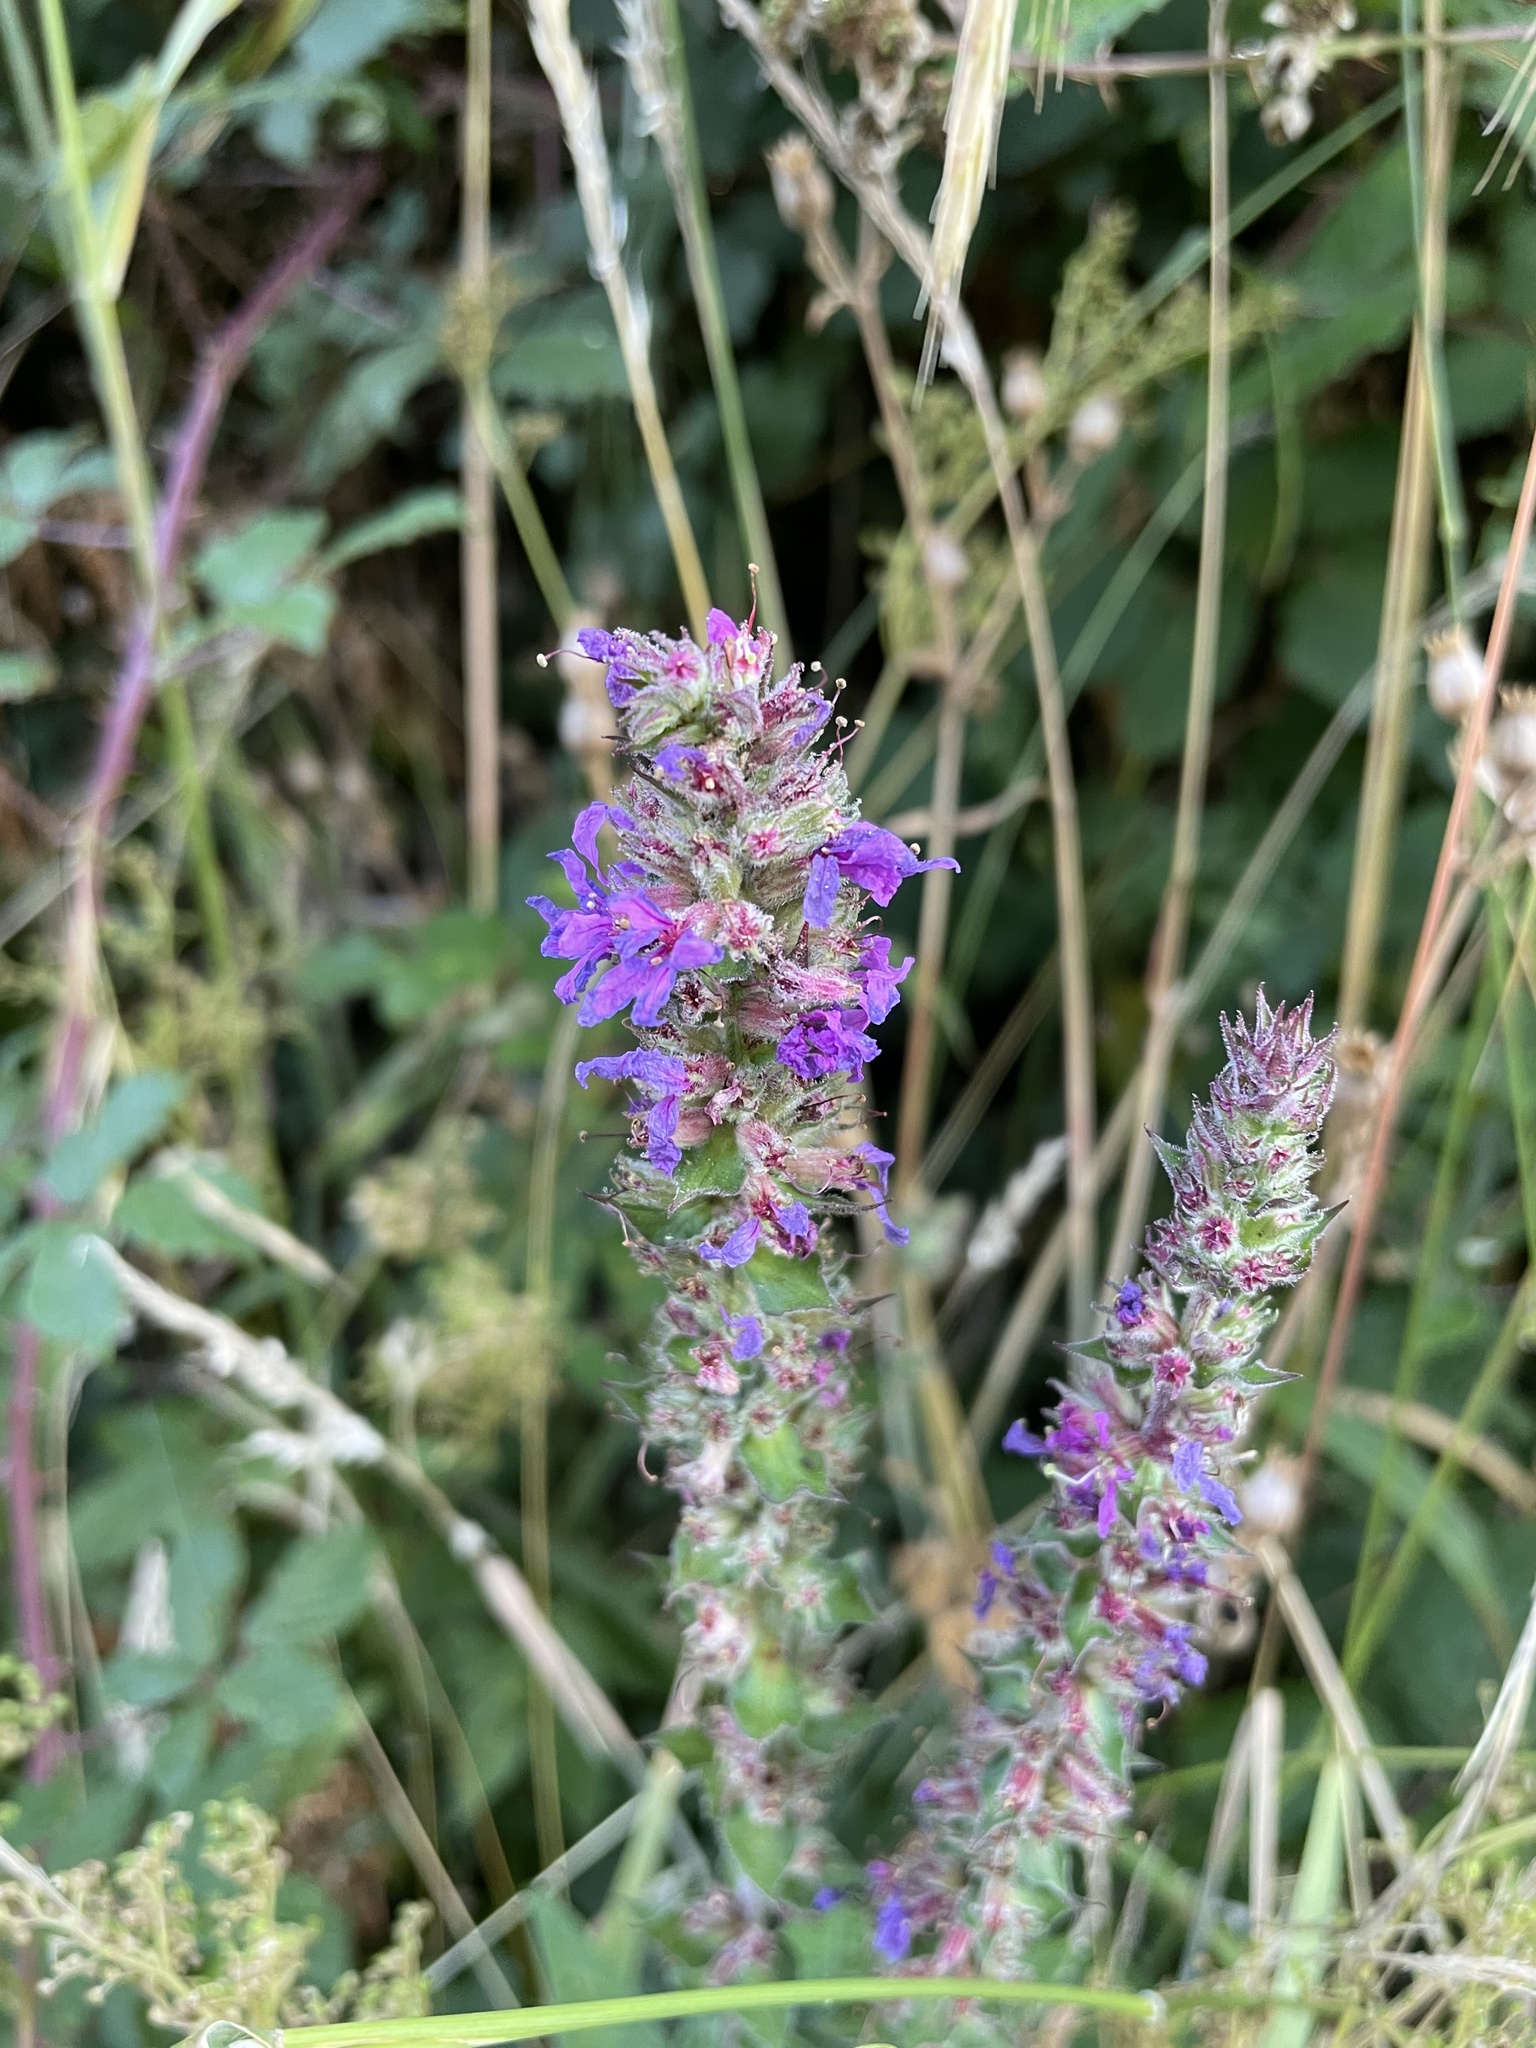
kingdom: Plantae
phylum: Tracheophyta
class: Magnoliopsida
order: Myrtales
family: Lythraceae
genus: Lythrum
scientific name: Lythrum salicaria
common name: Purple loosestrife
